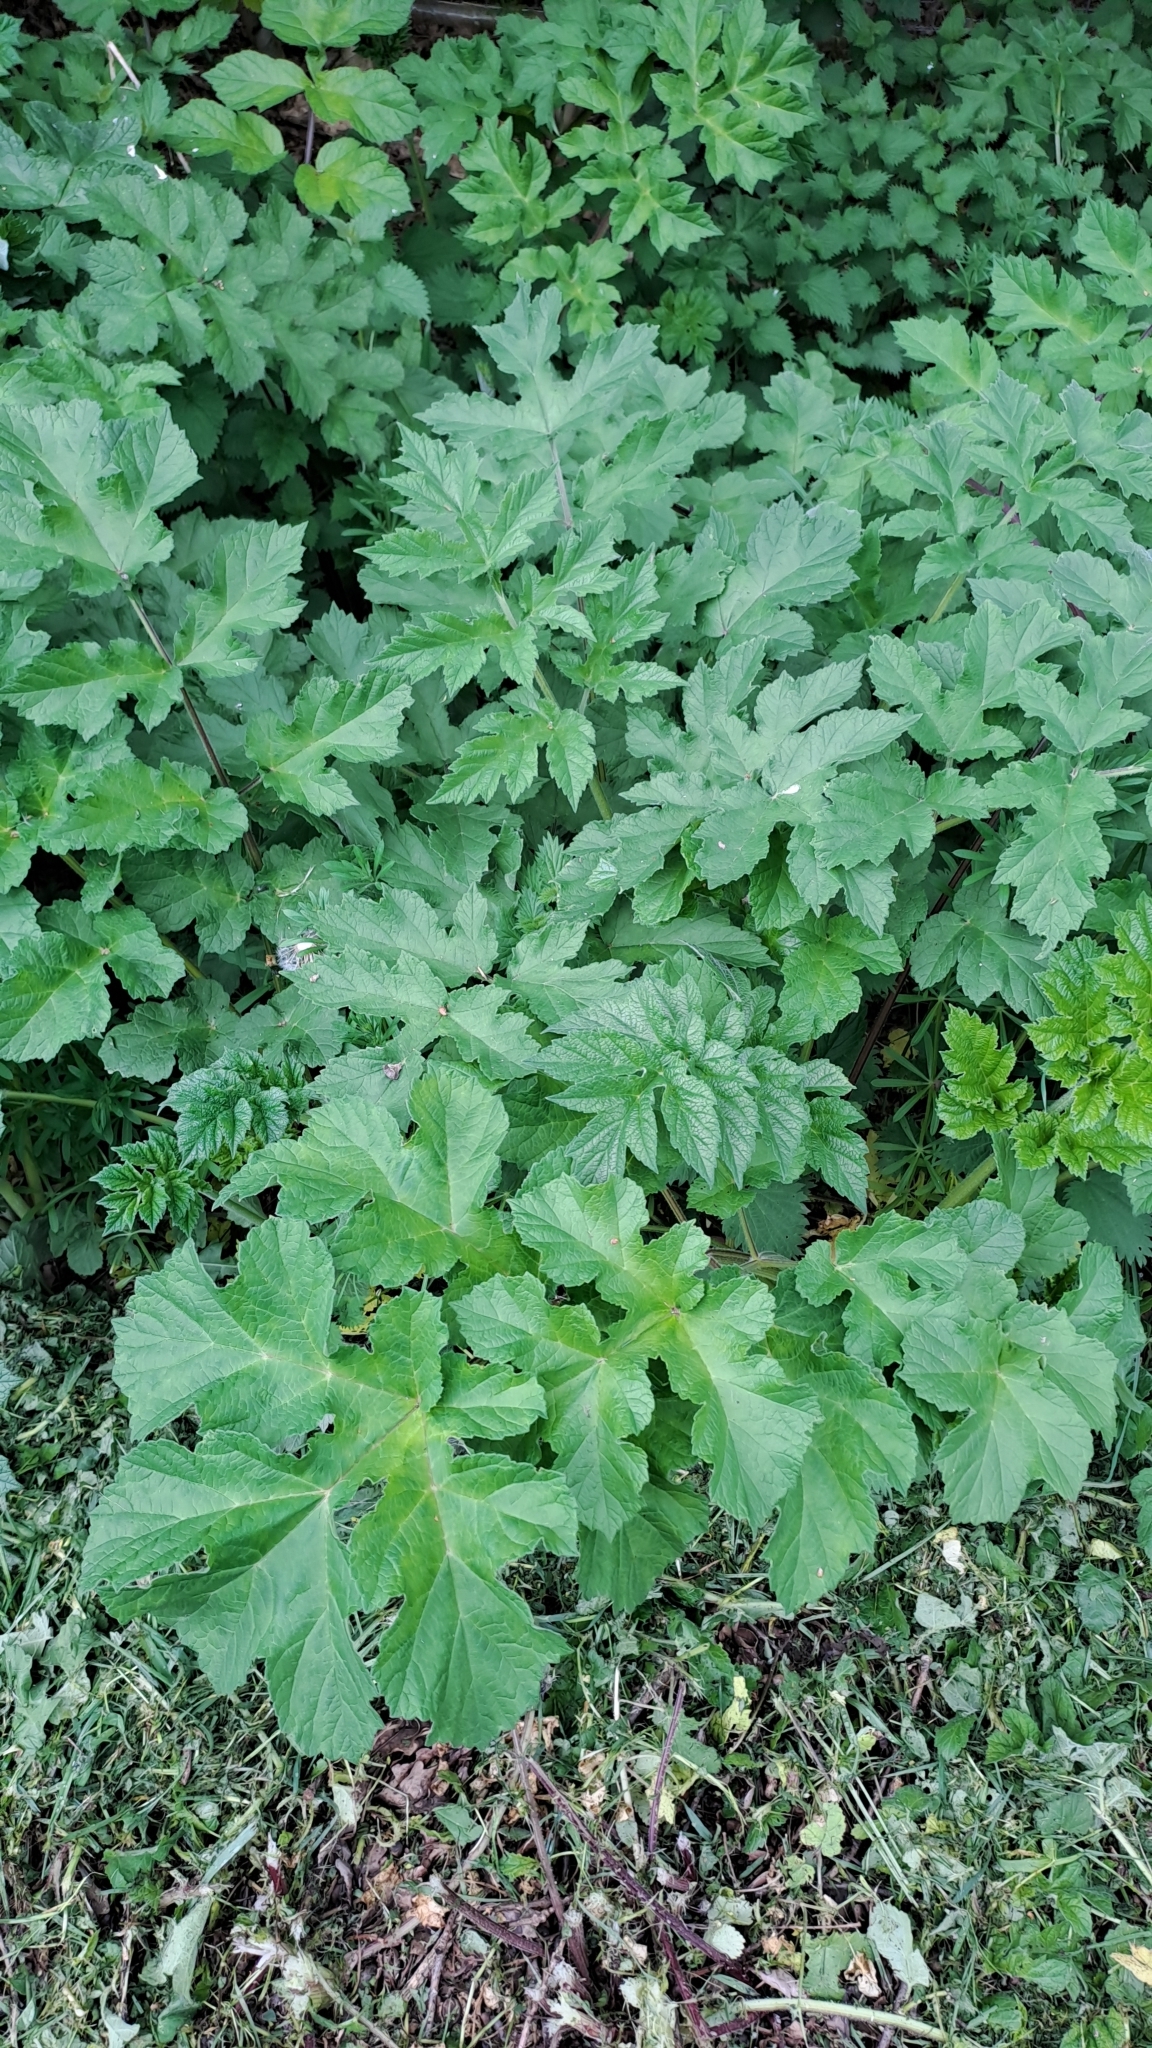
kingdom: Plantae
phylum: Tracheophyta
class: Magnoliopsida
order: Apiales
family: Apiaceae
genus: Heracleum
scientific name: Heracleum sphondylium
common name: Hogweed
